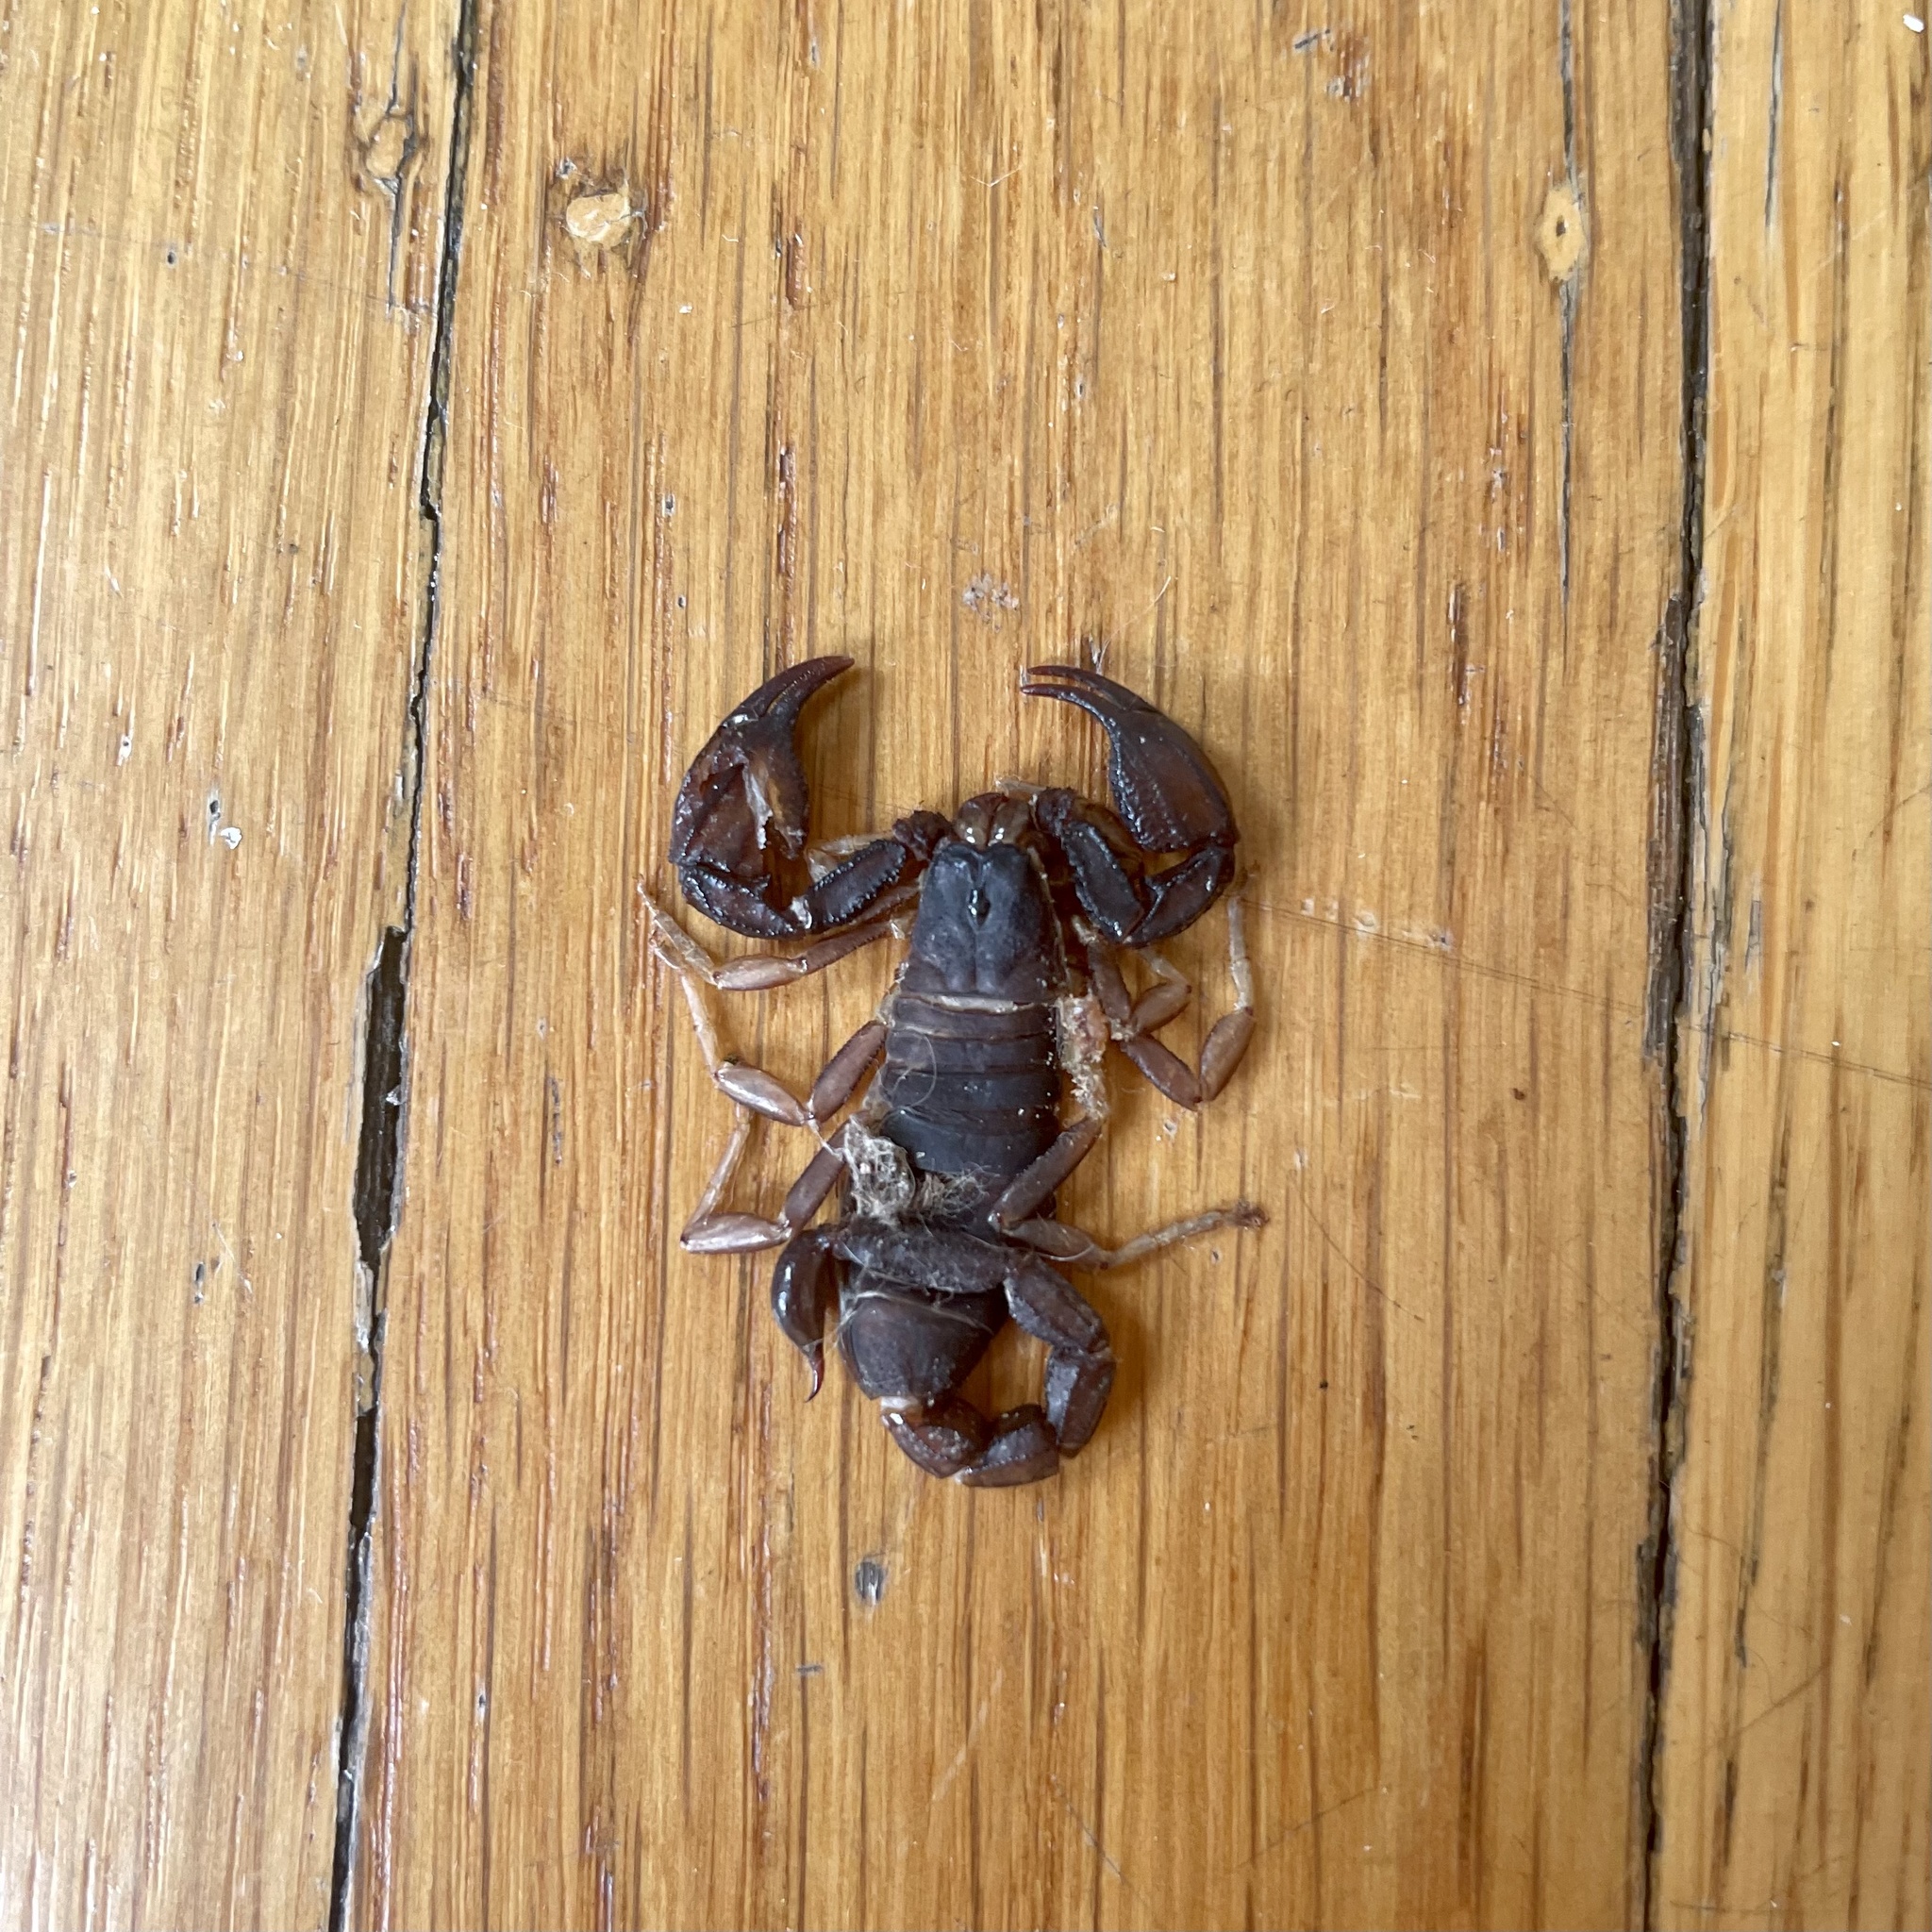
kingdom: Animalia
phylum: Arthropoda
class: Arachnida
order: Scorpiones
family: Chactidae
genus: Uroctonus
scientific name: Uroctonus mordax
